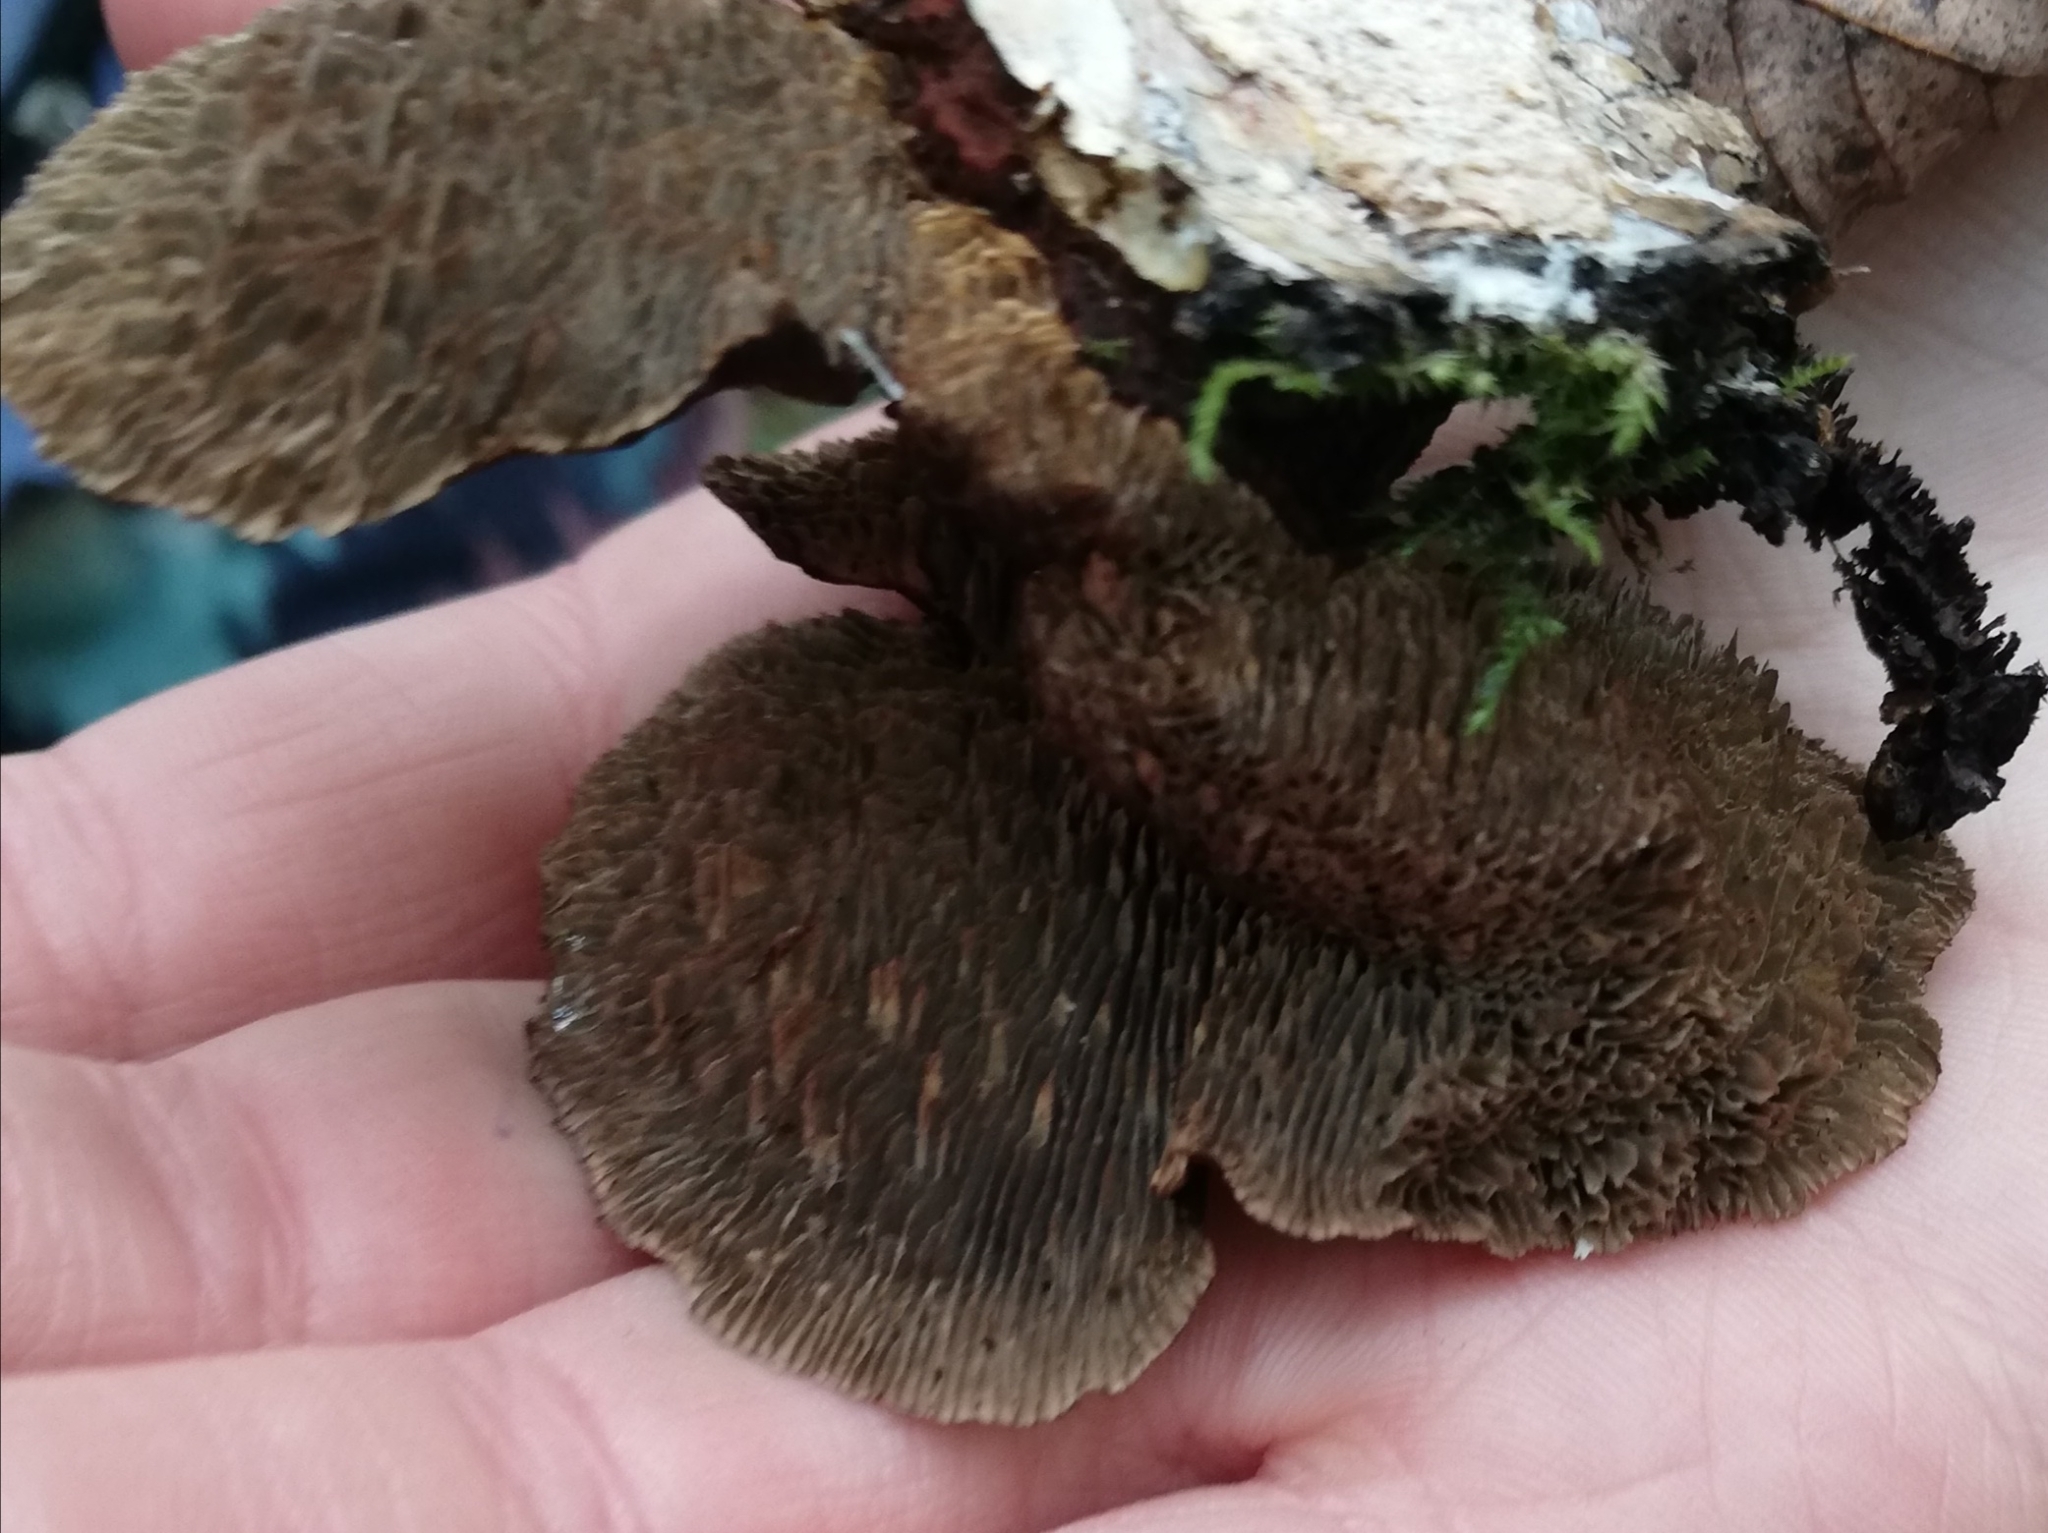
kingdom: Fungi
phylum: Basidiomycota
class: Agaricomycetes
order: Polyporales
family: Polyporaceae
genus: Daedaleopsis
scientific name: Daedaleopsis tricolor
